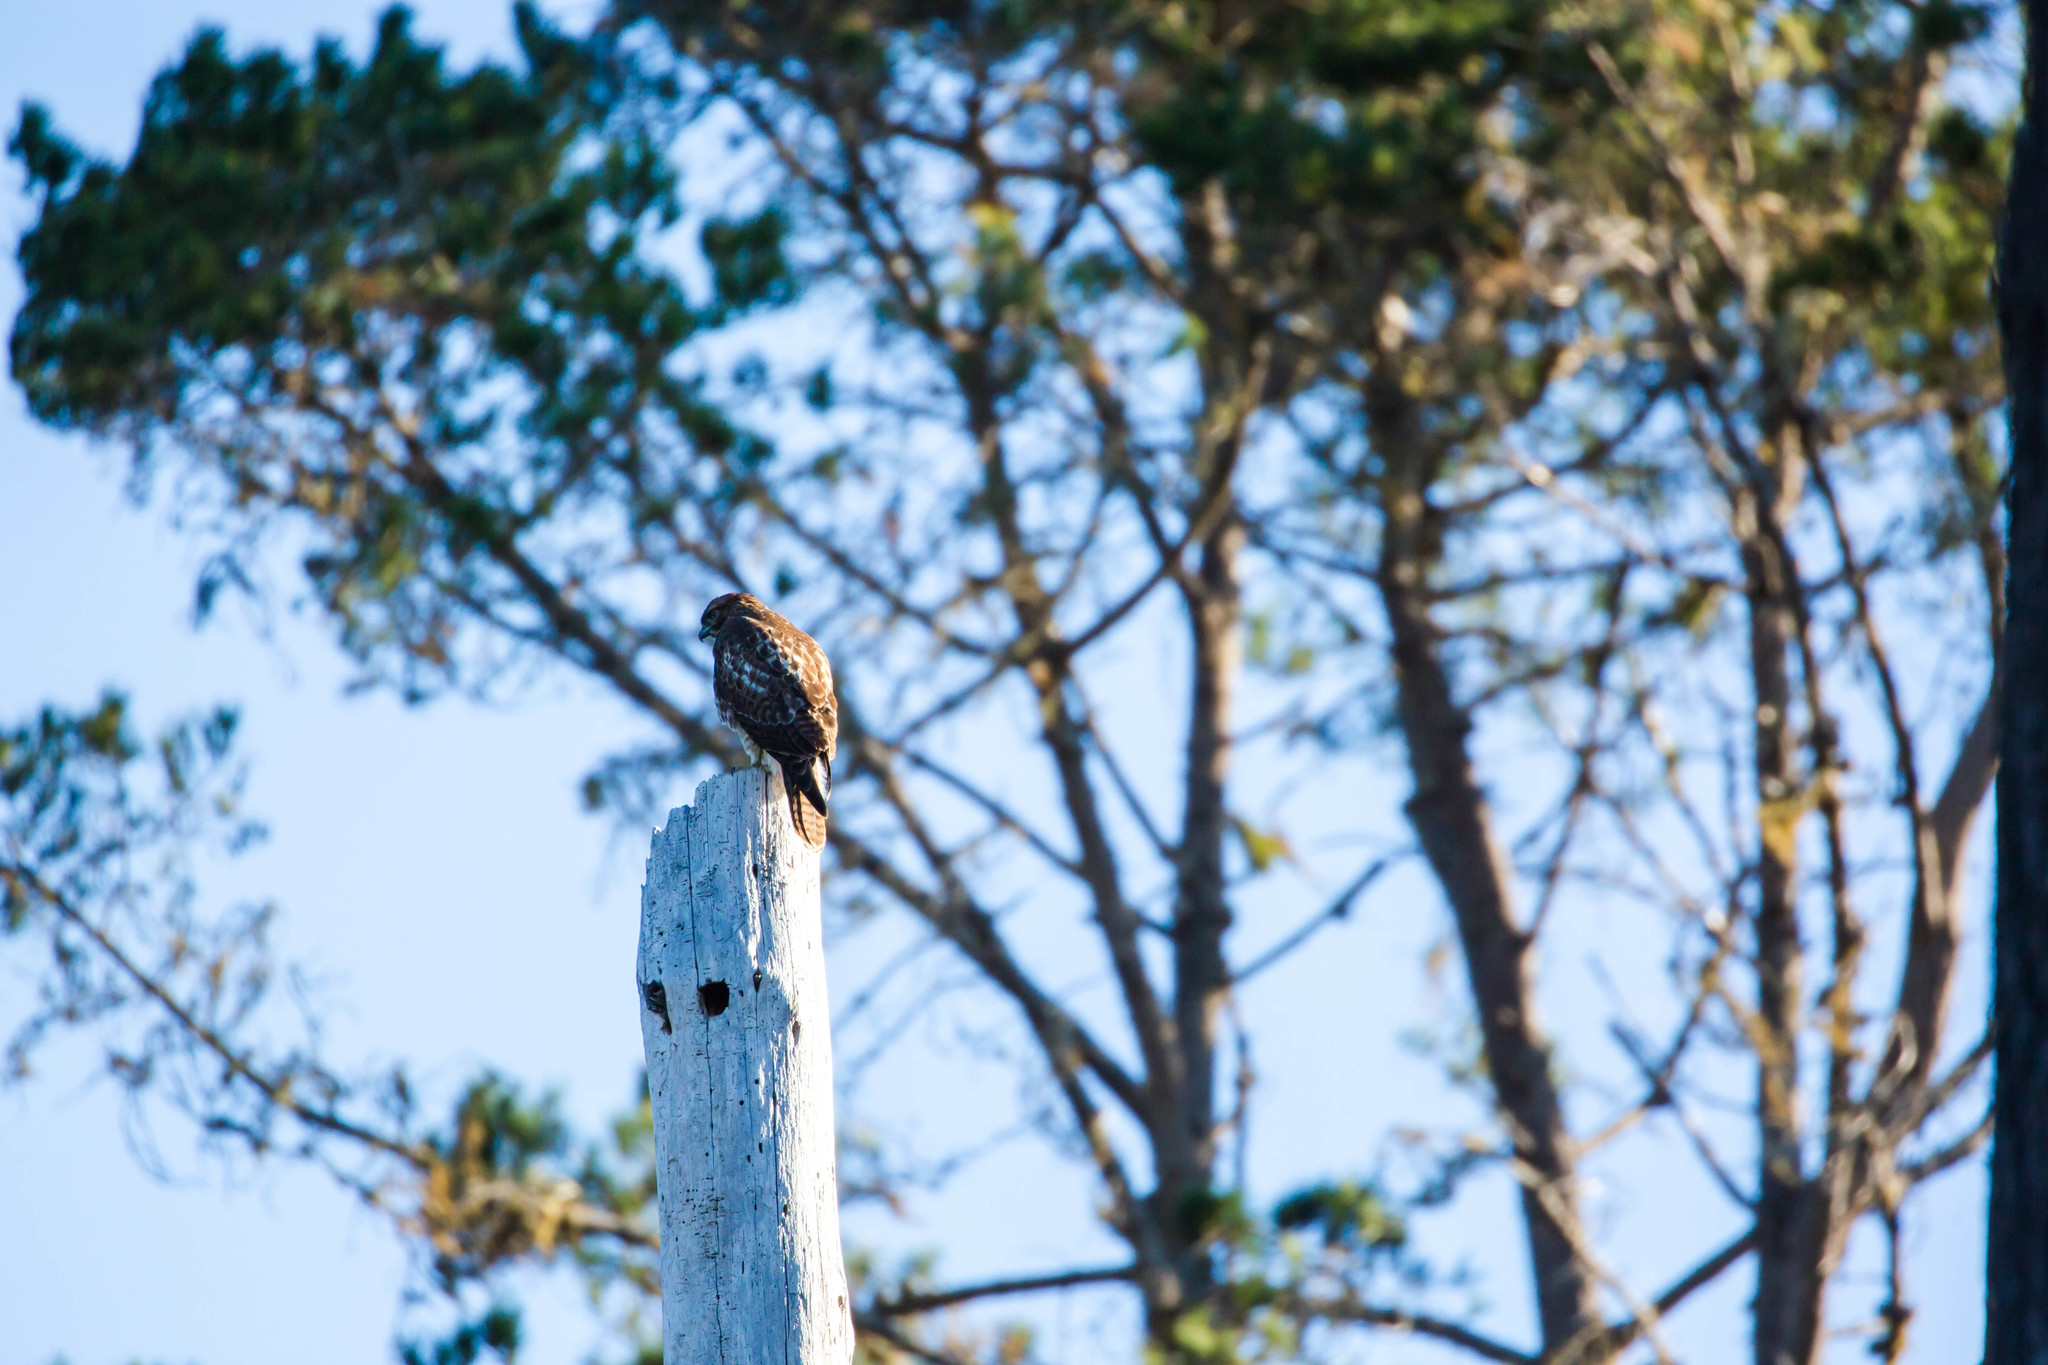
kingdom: Animalia
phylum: Chordata
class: Aves
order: Accipitriformes
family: Accipitridae
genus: Buteo
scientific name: Buteo jamaicensis
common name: Red-tailed hawk
